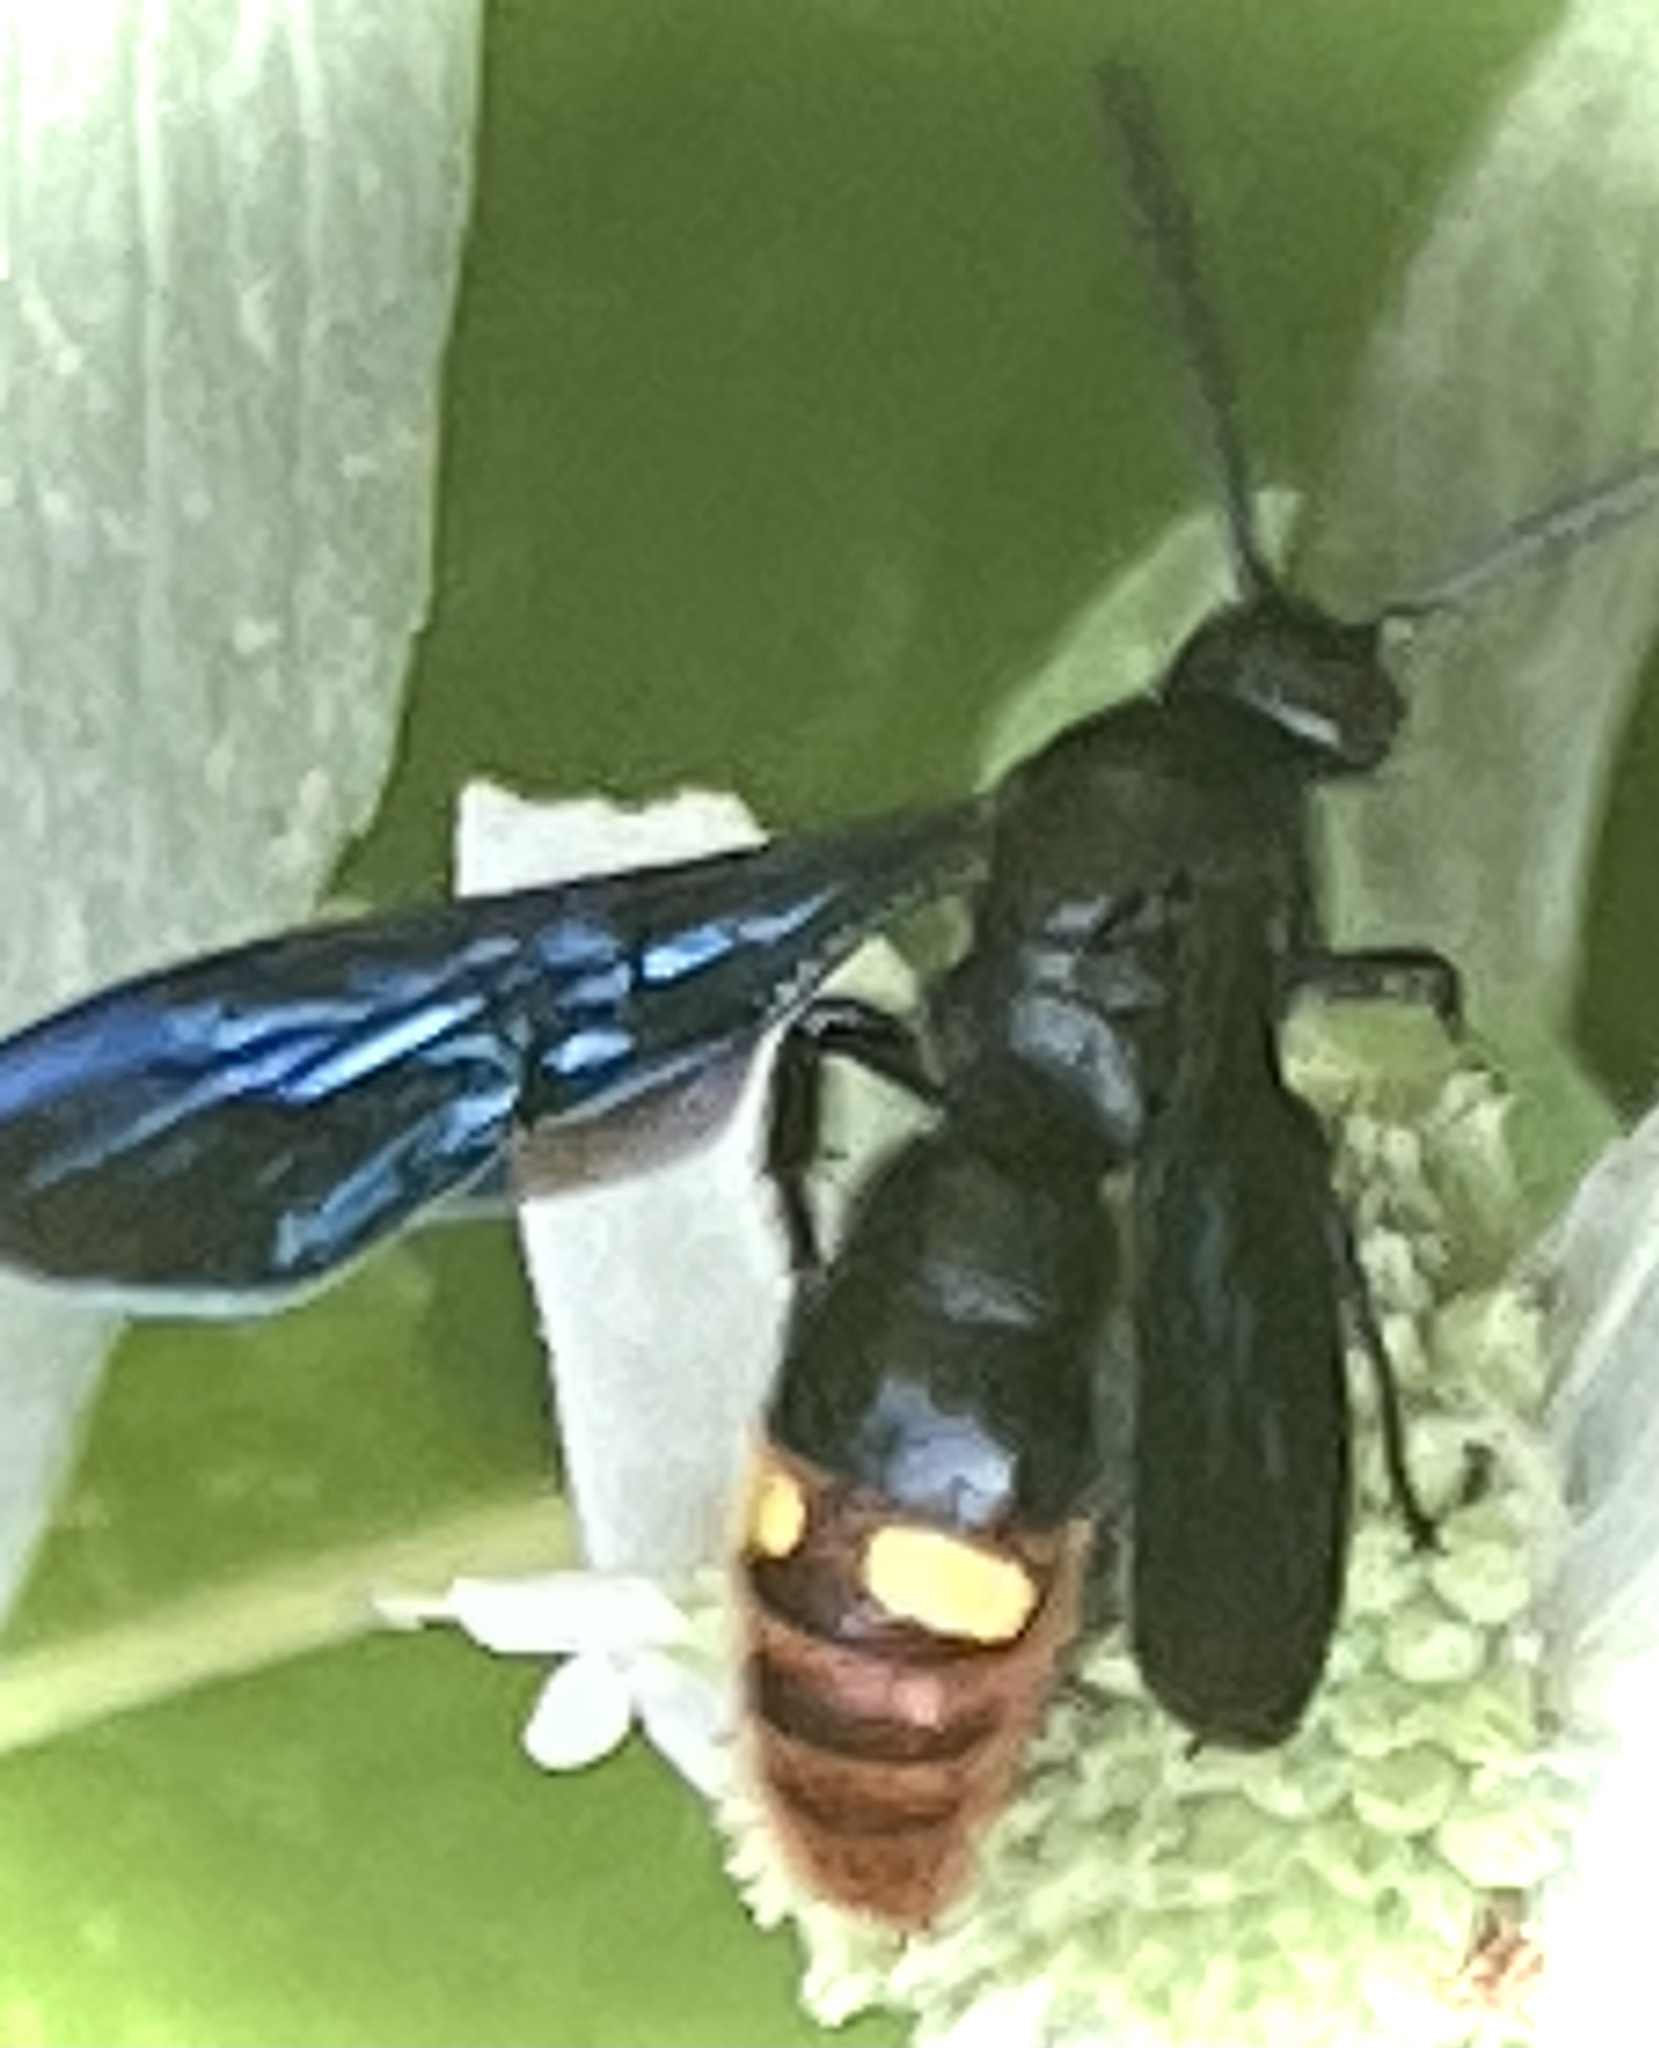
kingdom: Animalia
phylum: Arthropoda
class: Insecta
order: Hymenoptera
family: Scoliidae
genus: Scolia
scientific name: Scolia dubia
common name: Blue-winged scoliid wasp
